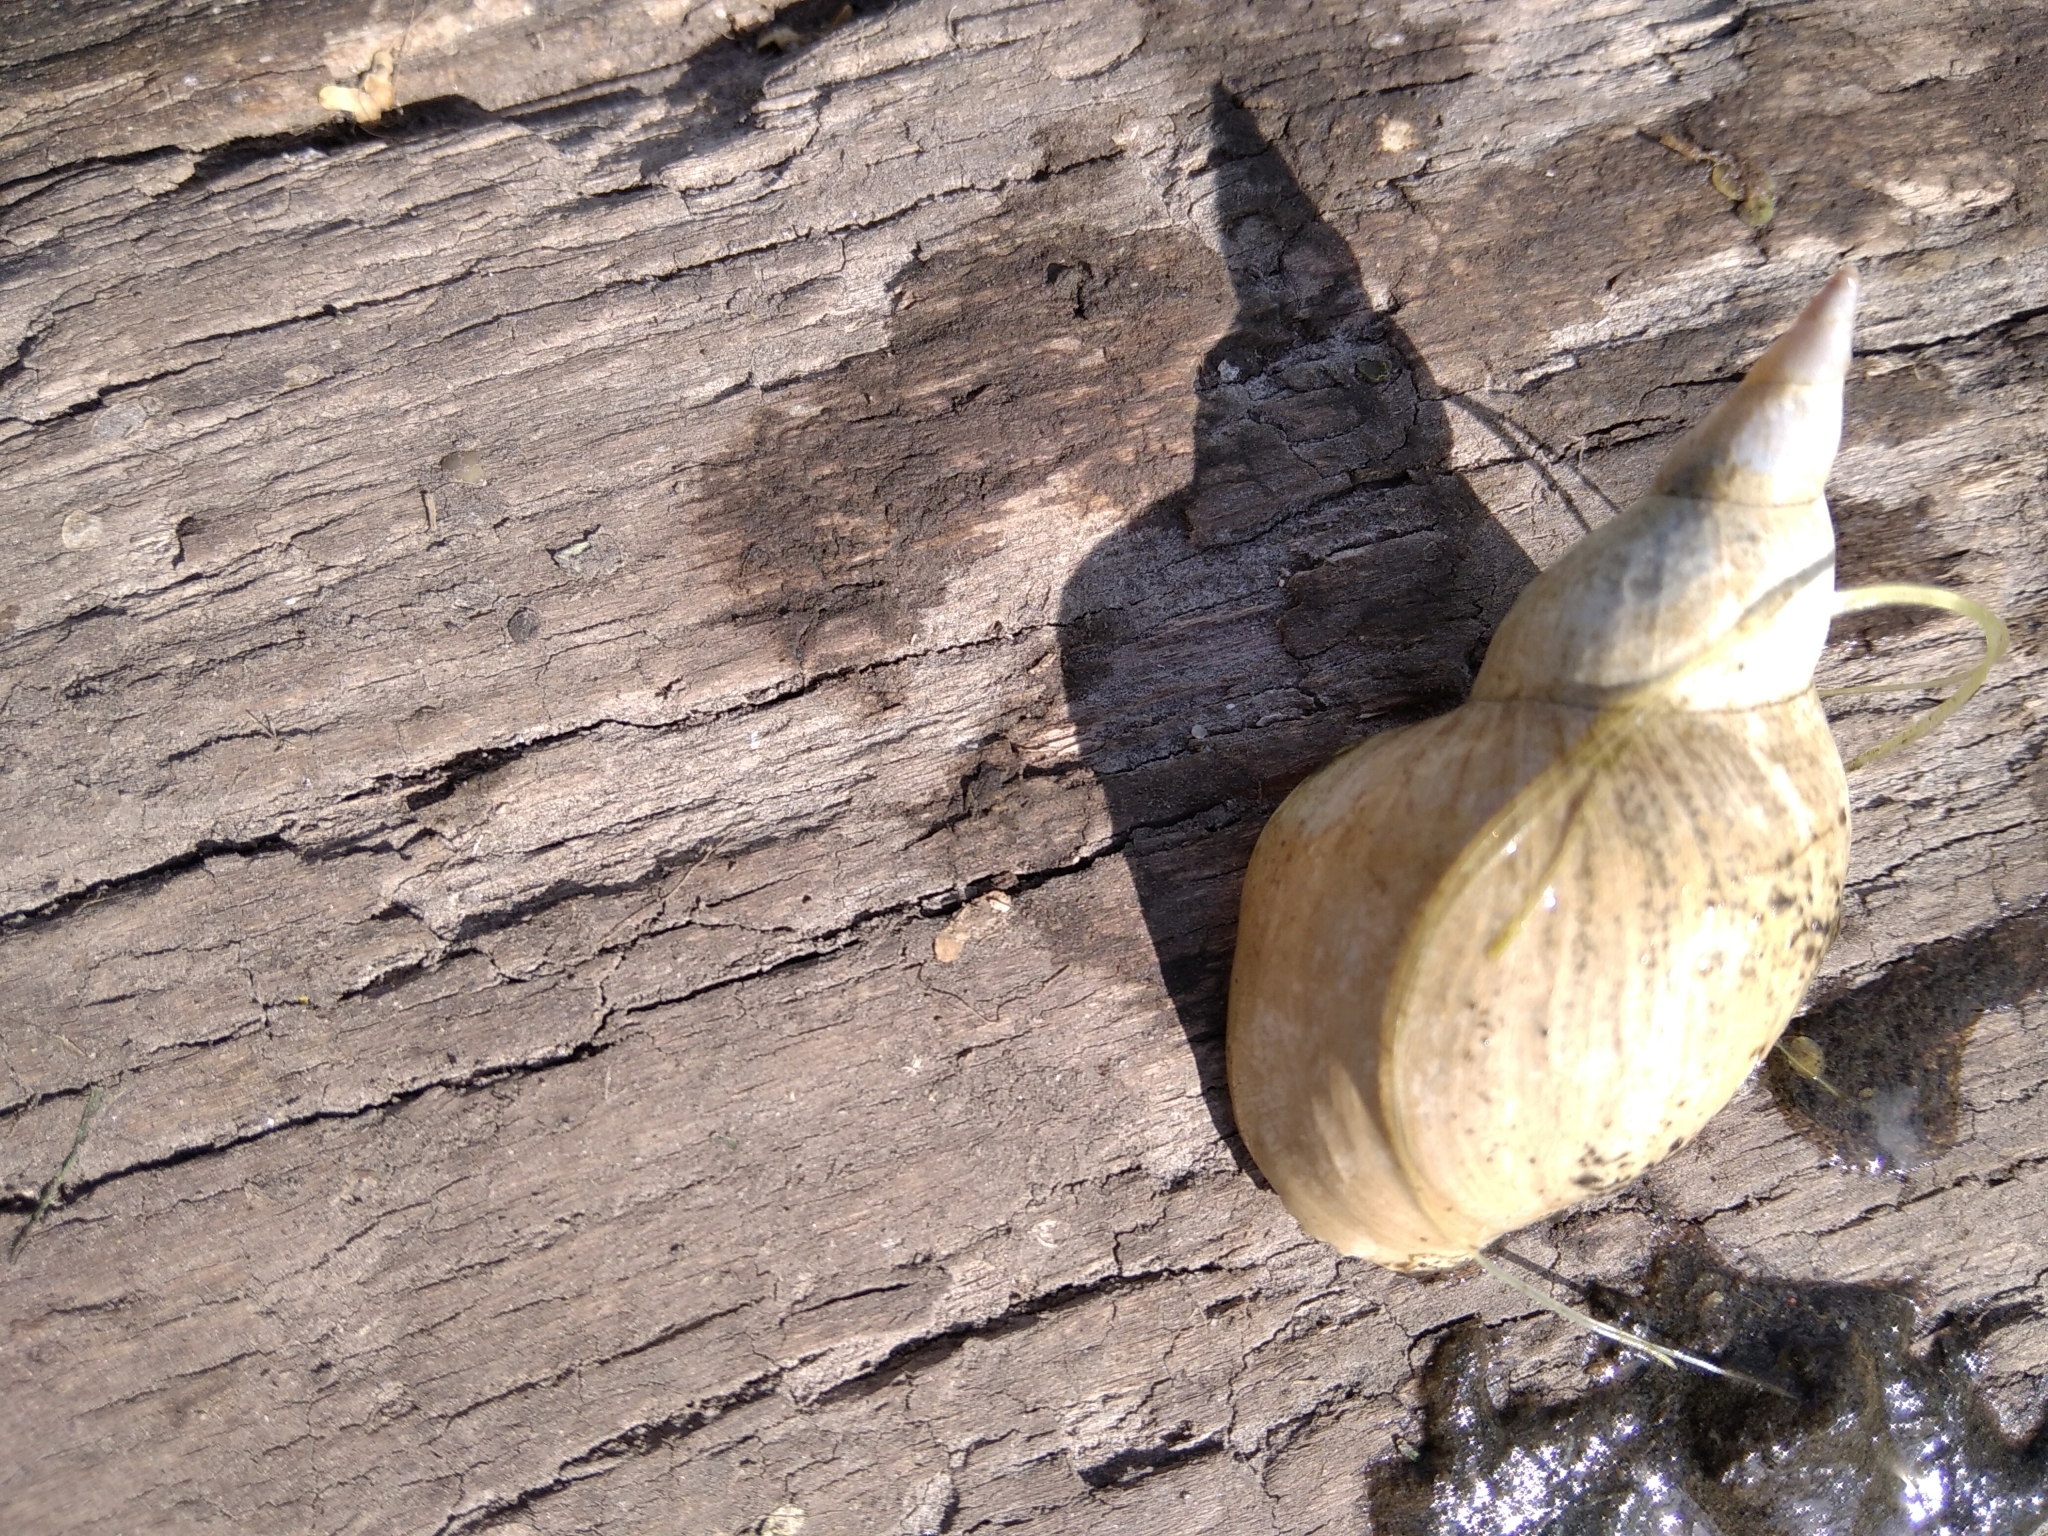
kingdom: Animalia
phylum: Mollusca
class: Gastropoda
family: Lymnaeidae
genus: Lymnaea
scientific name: Lymnaea stagnalis
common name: Great pond snail
